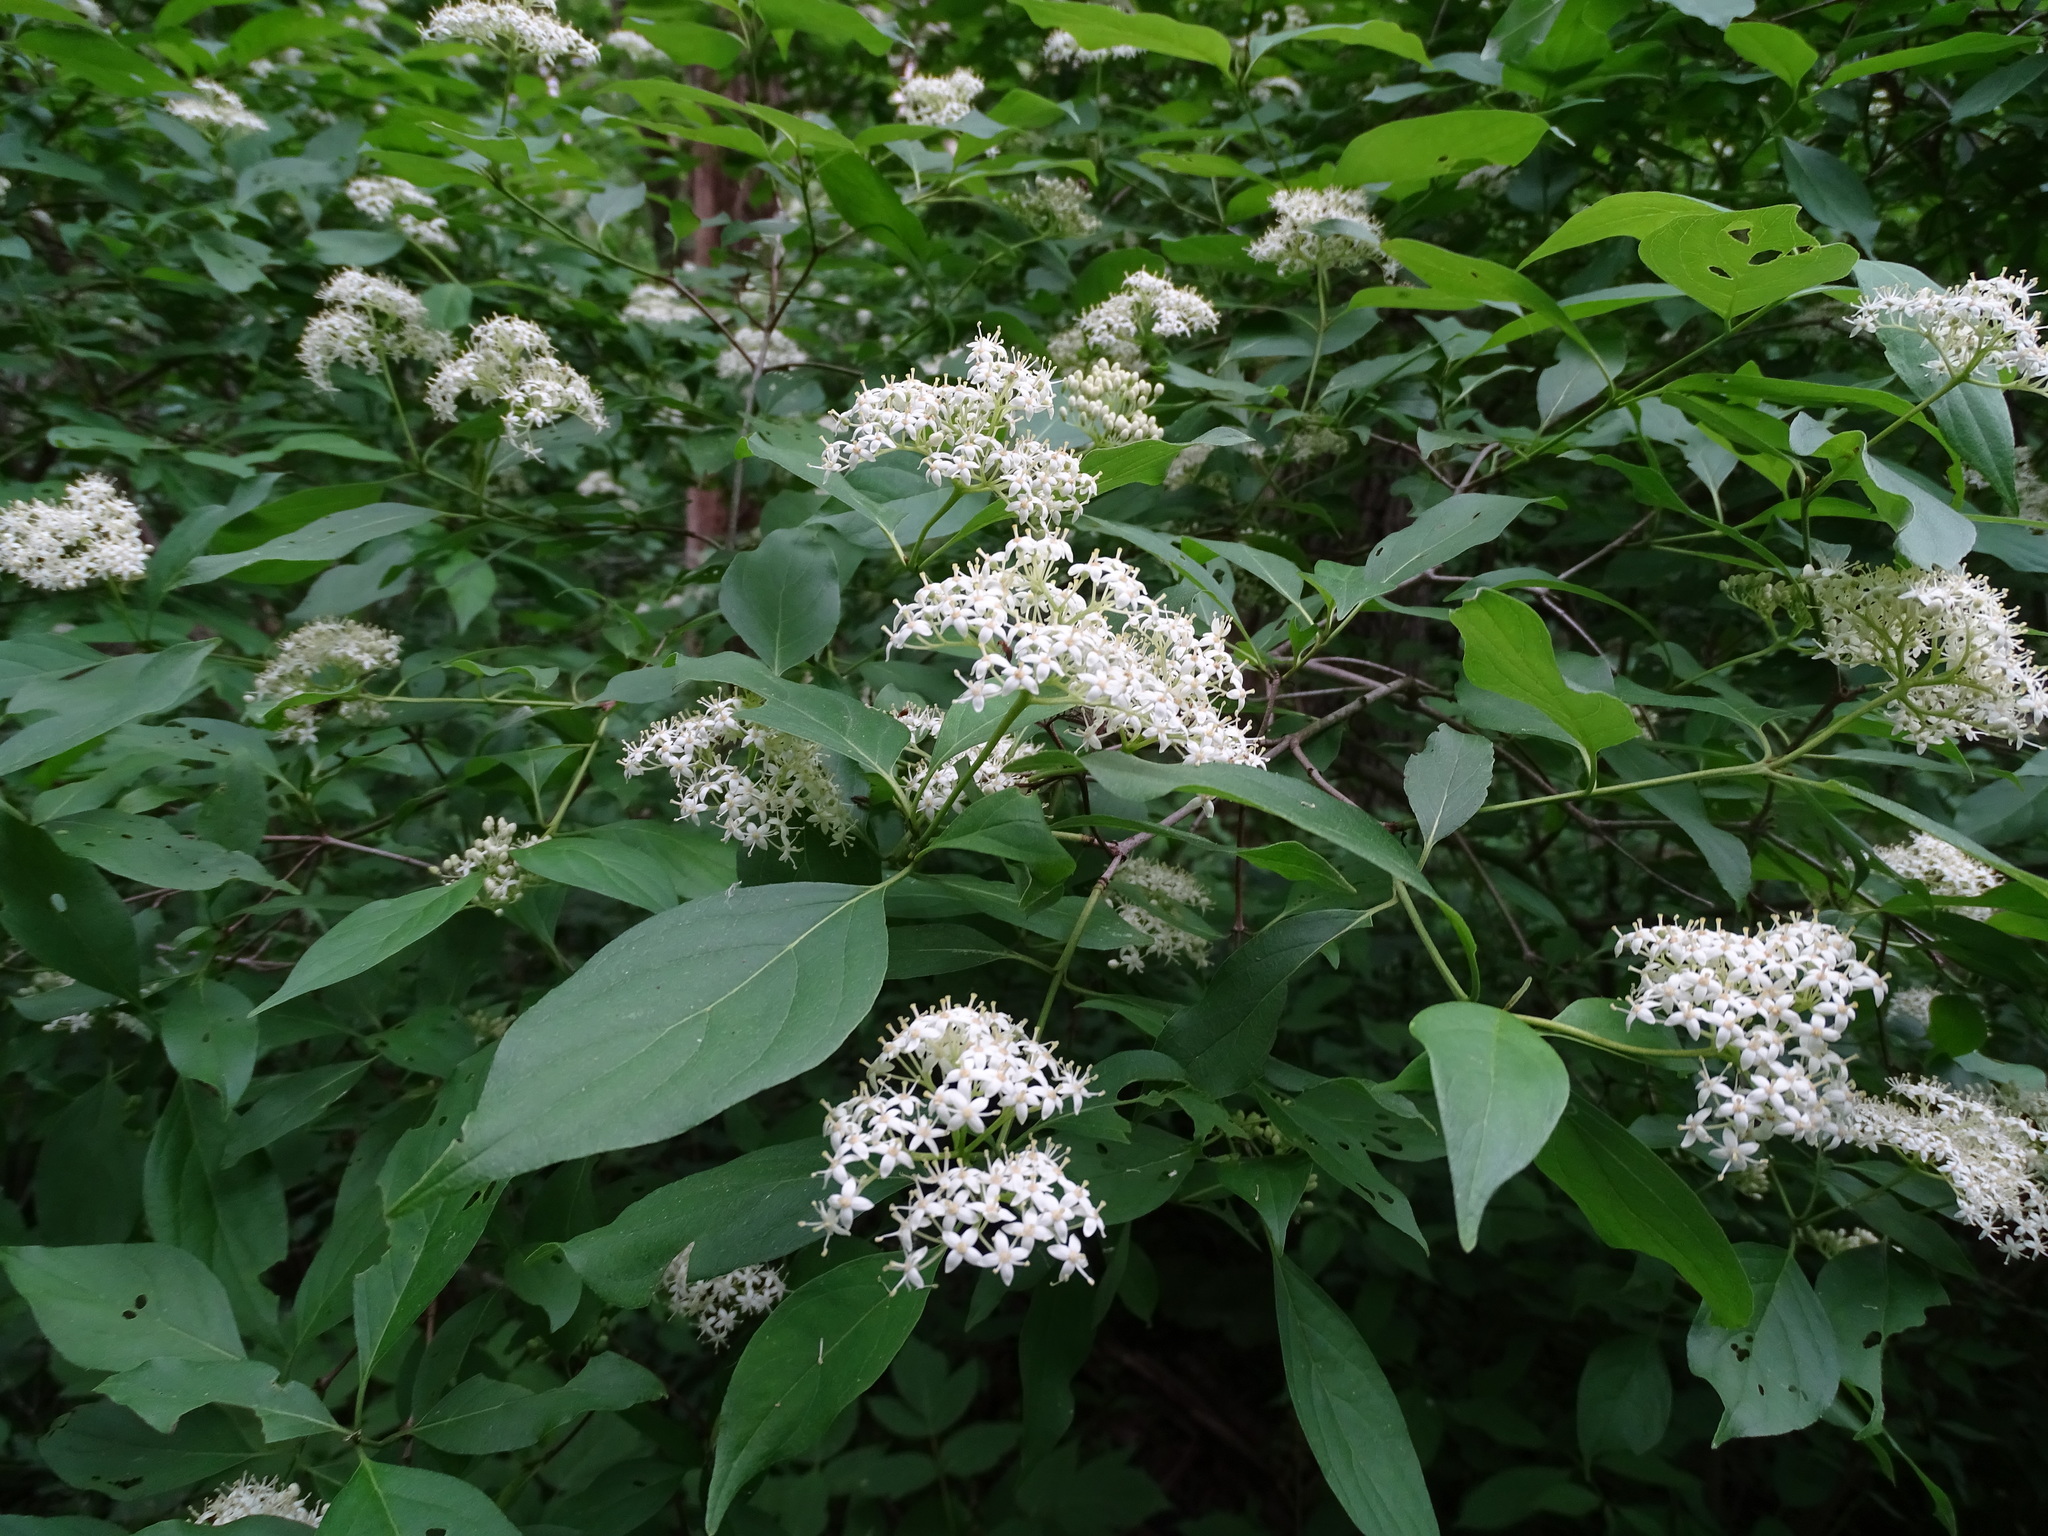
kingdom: Plantae
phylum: Tracheophyta
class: Magnoliopsida
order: Cornales
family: Cornaceae
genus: Cornus
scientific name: Cornus racemosa
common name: Panicled dogwood
